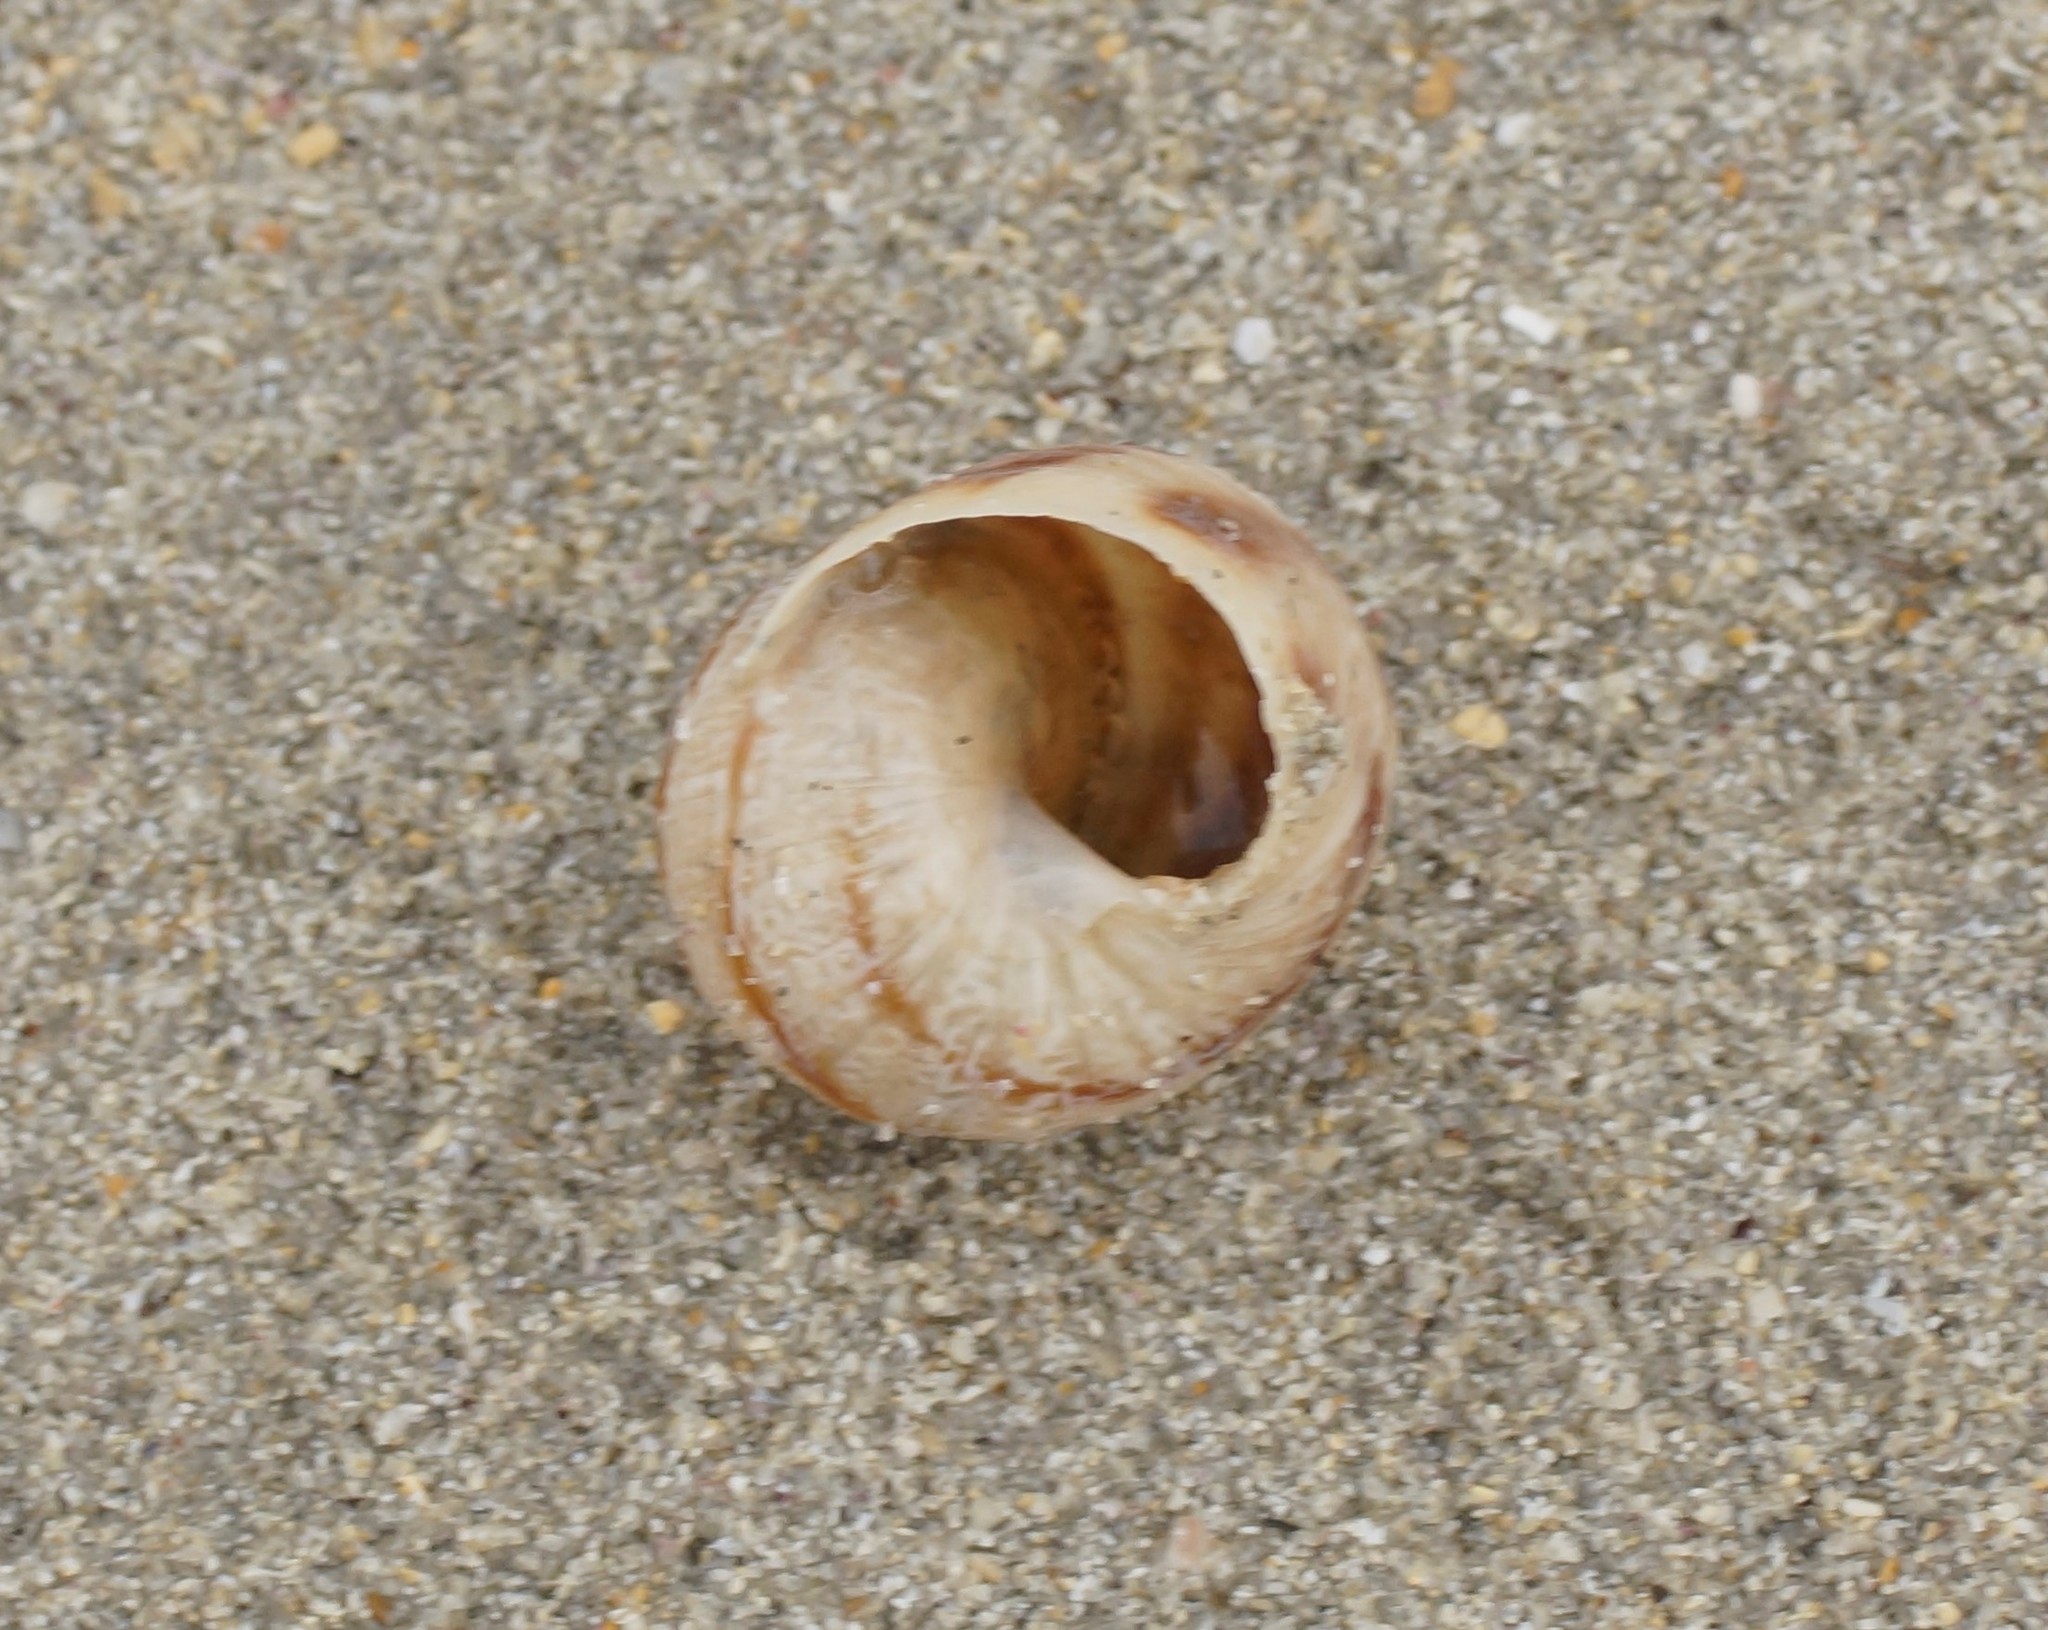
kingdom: Animalia
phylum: Mollusca
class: Gastropoda
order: Stylommatophora
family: Helicidae
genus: Cornu
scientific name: Cornu aspersum
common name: Brown garden snail
